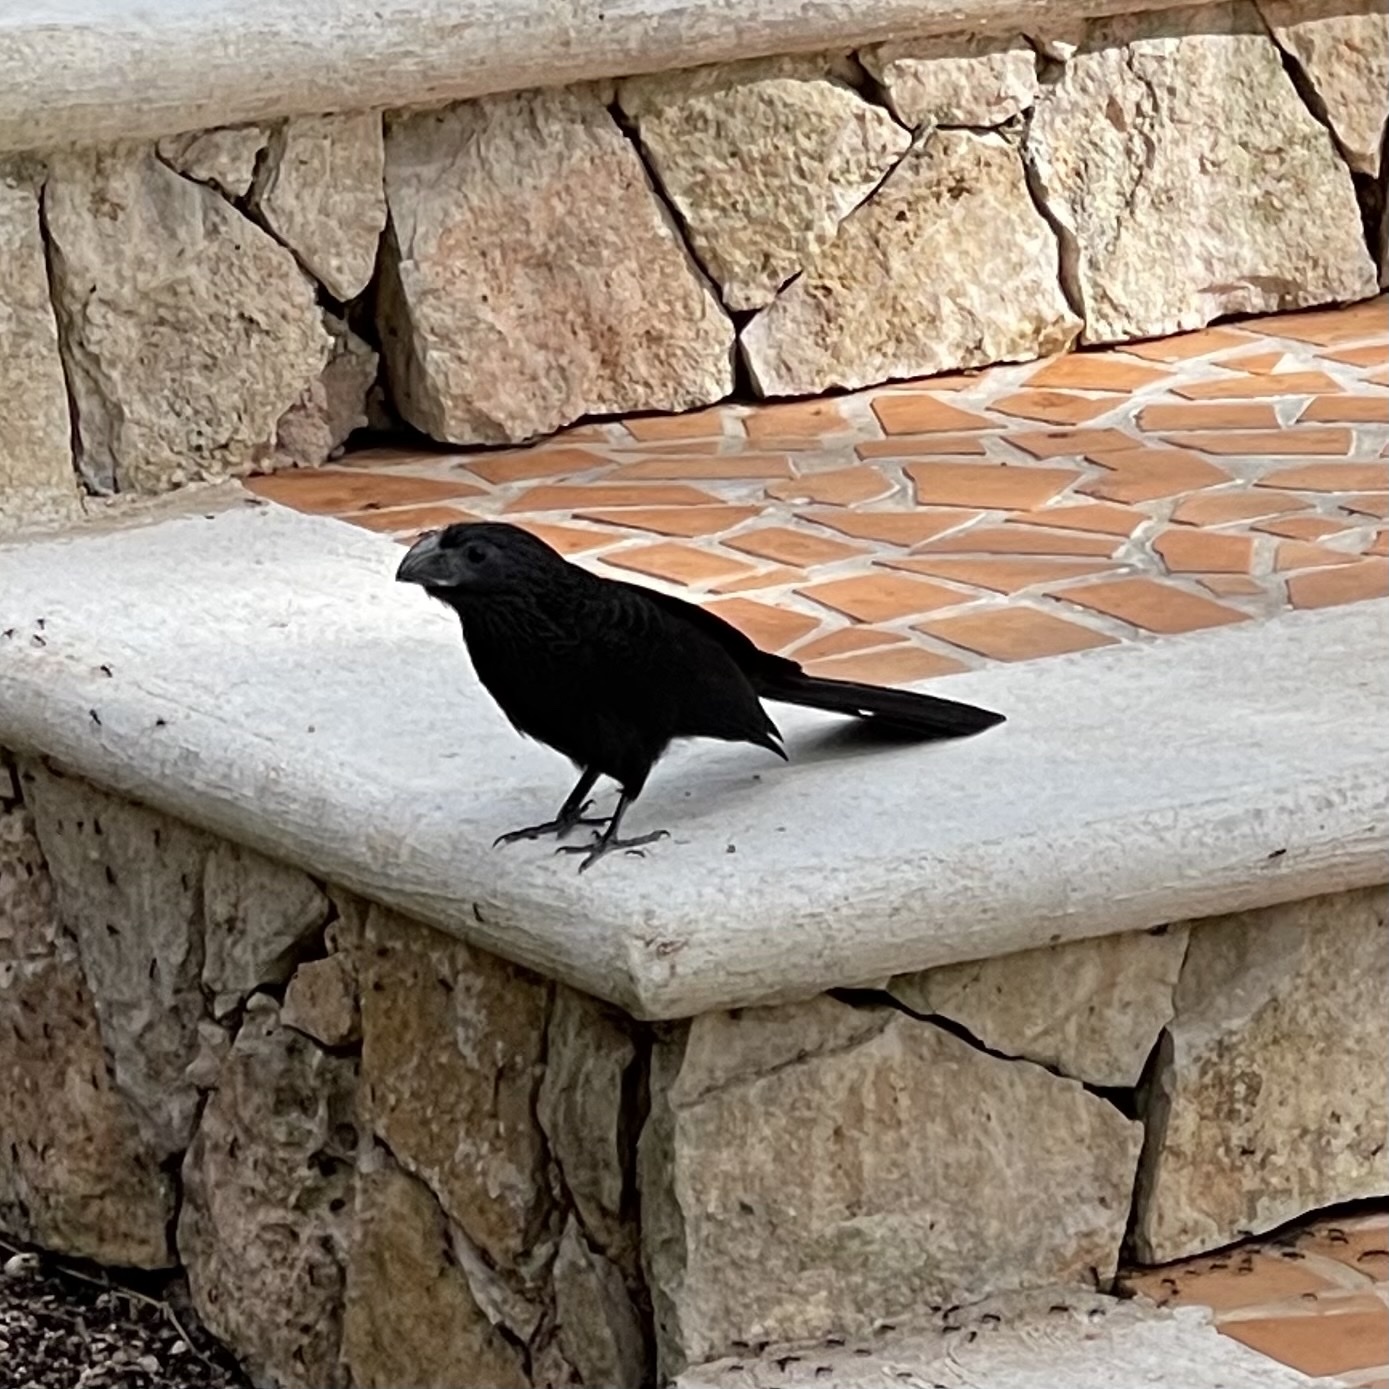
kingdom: Animalia
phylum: Chordata
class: Aves
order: Cuculiformes
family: Cuculidae
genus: Crotophaga
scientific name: Crotophaga sulcirostris
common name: Groove-billed ani
